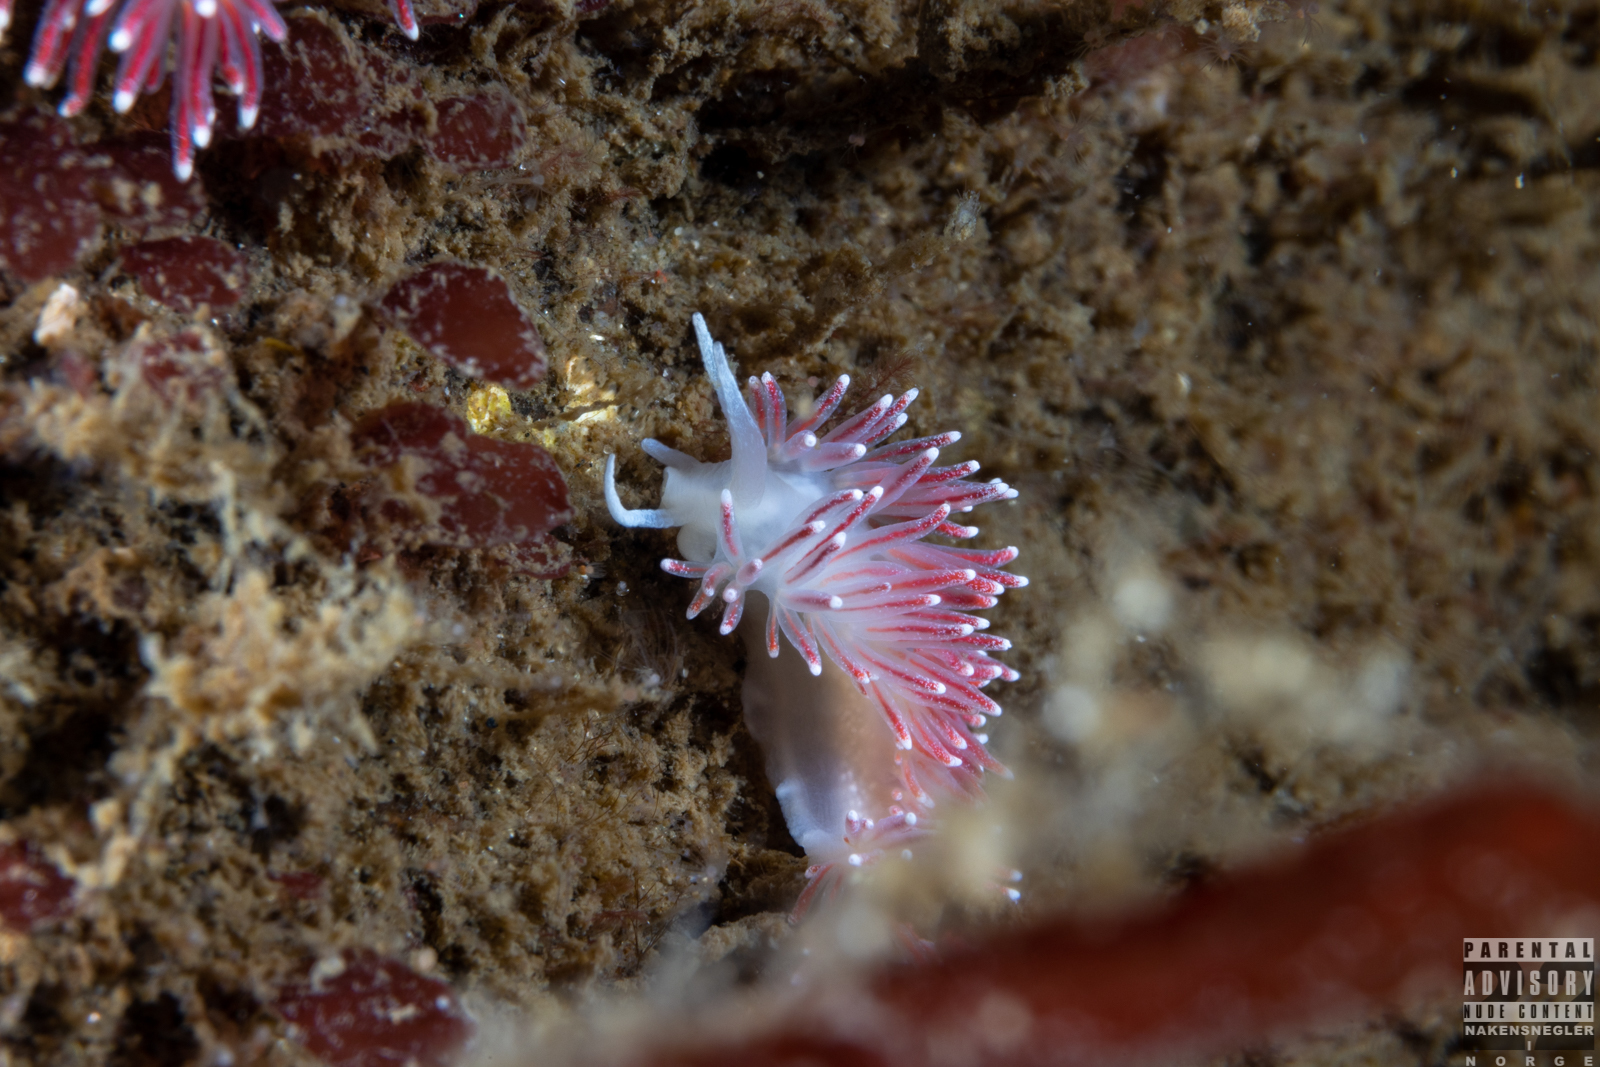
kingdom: Animalia
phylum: Mollusca
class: Gastropoda
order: Nudibranchia
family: Flabellinidae
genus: Carronella
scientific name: Carronella pellucida
